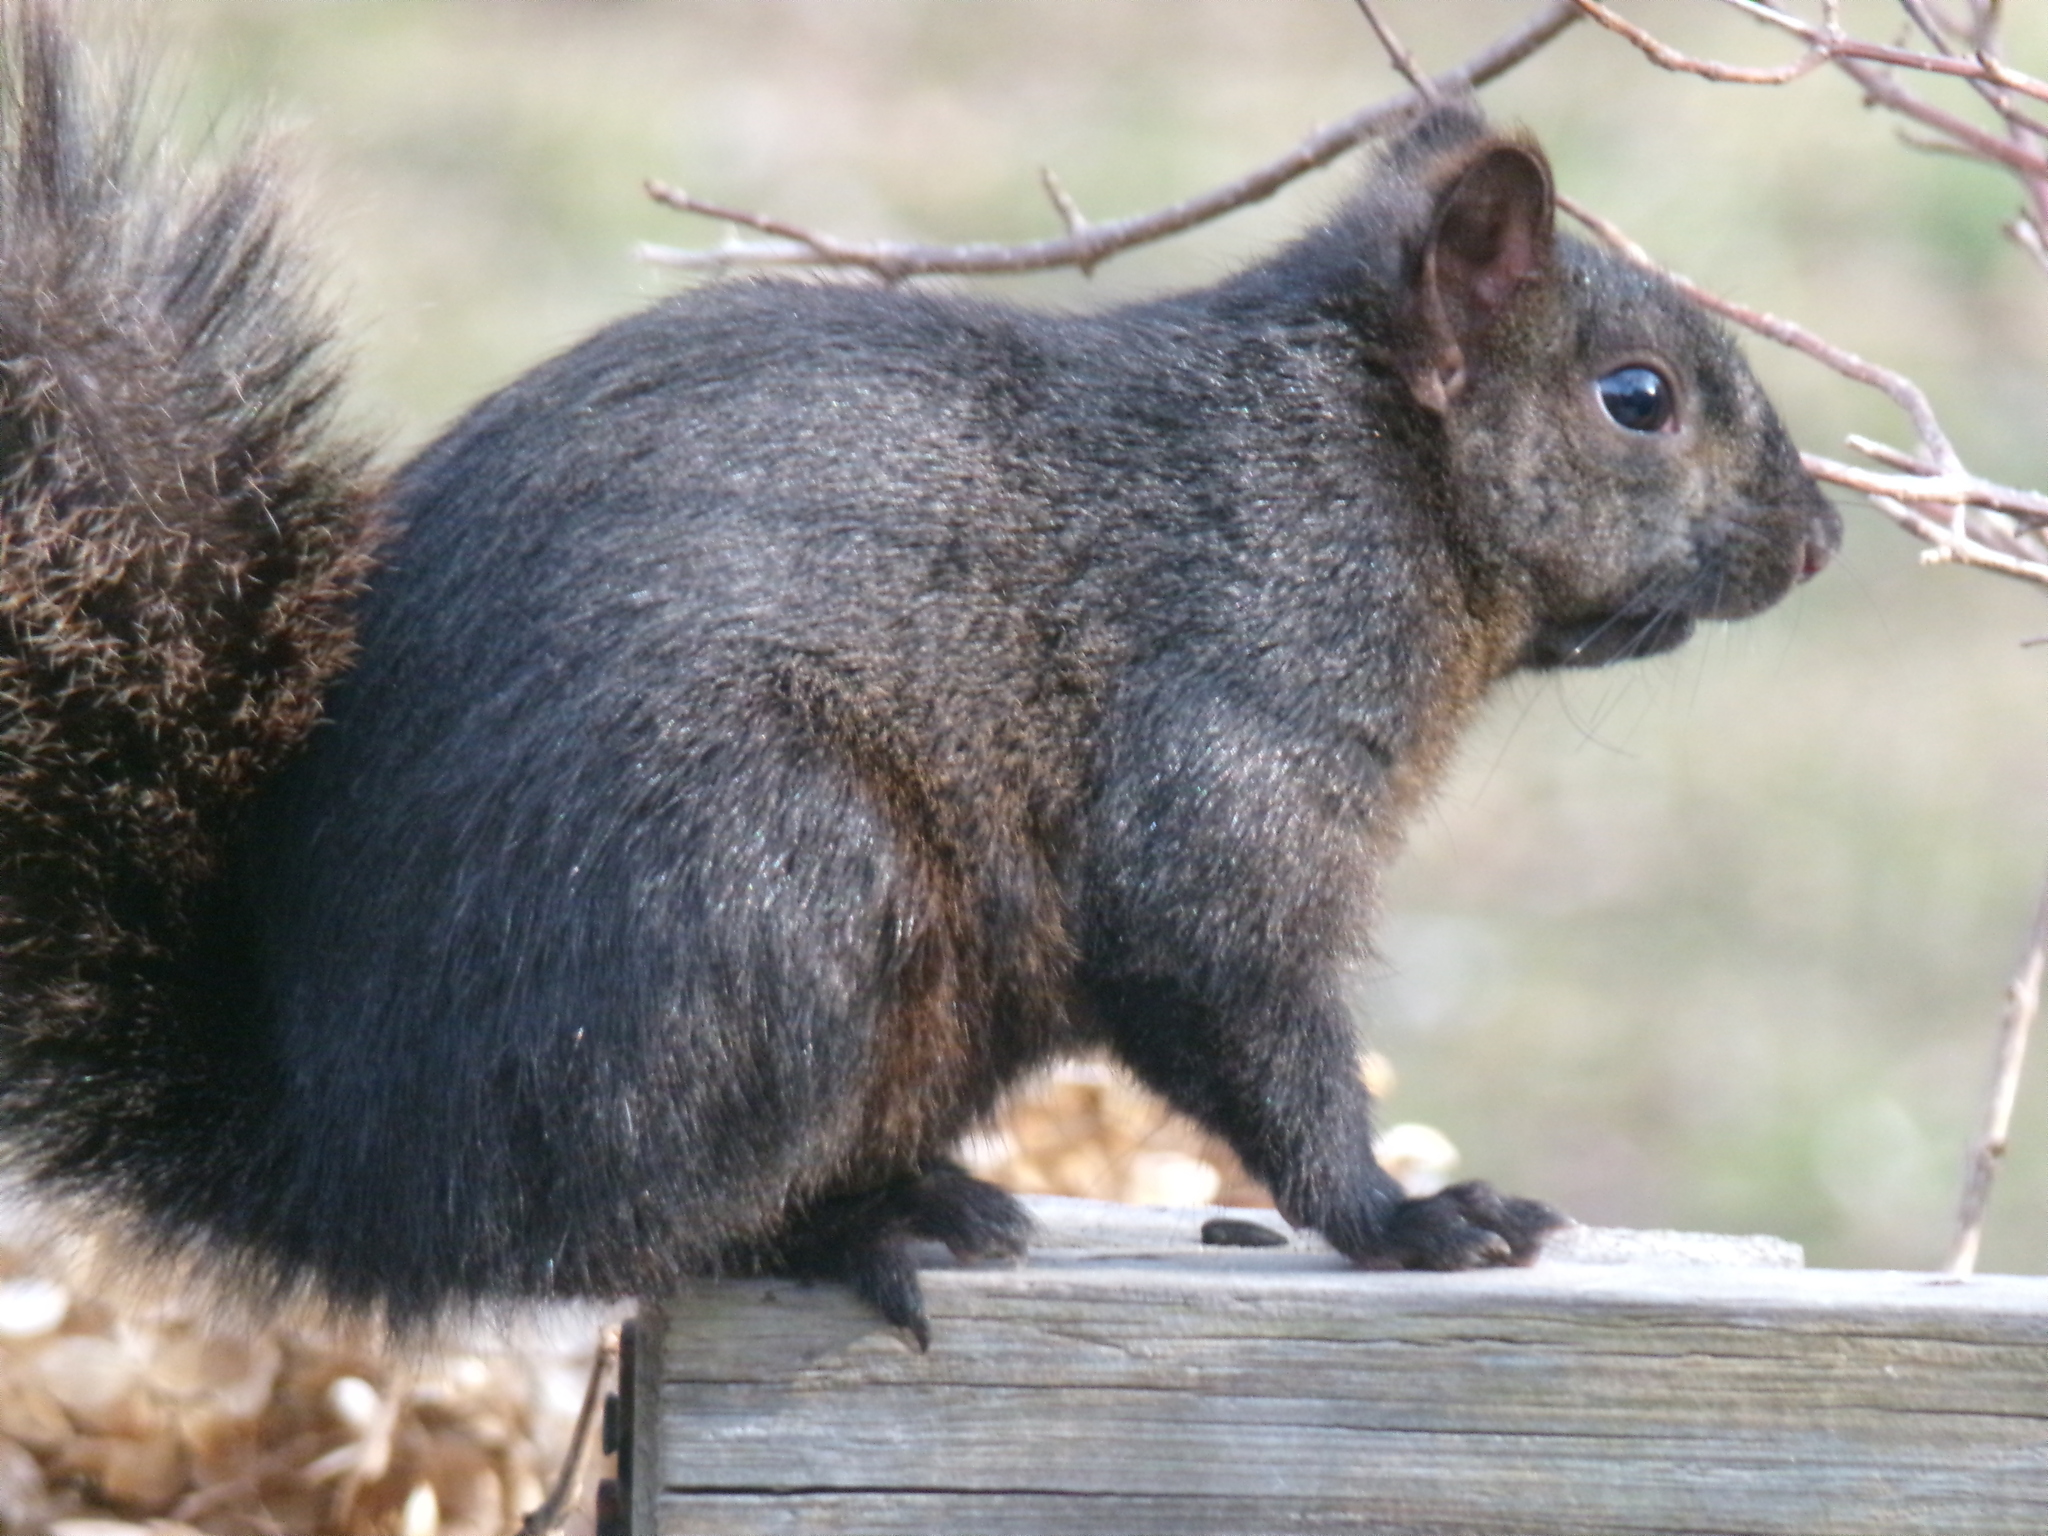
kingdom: Animalia
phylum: Chordata
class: Mammalia
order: Rodentia
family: Sciuridae
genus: Sciurus
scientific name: Sciurus carolinensis
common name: Eastern gray squirrel
